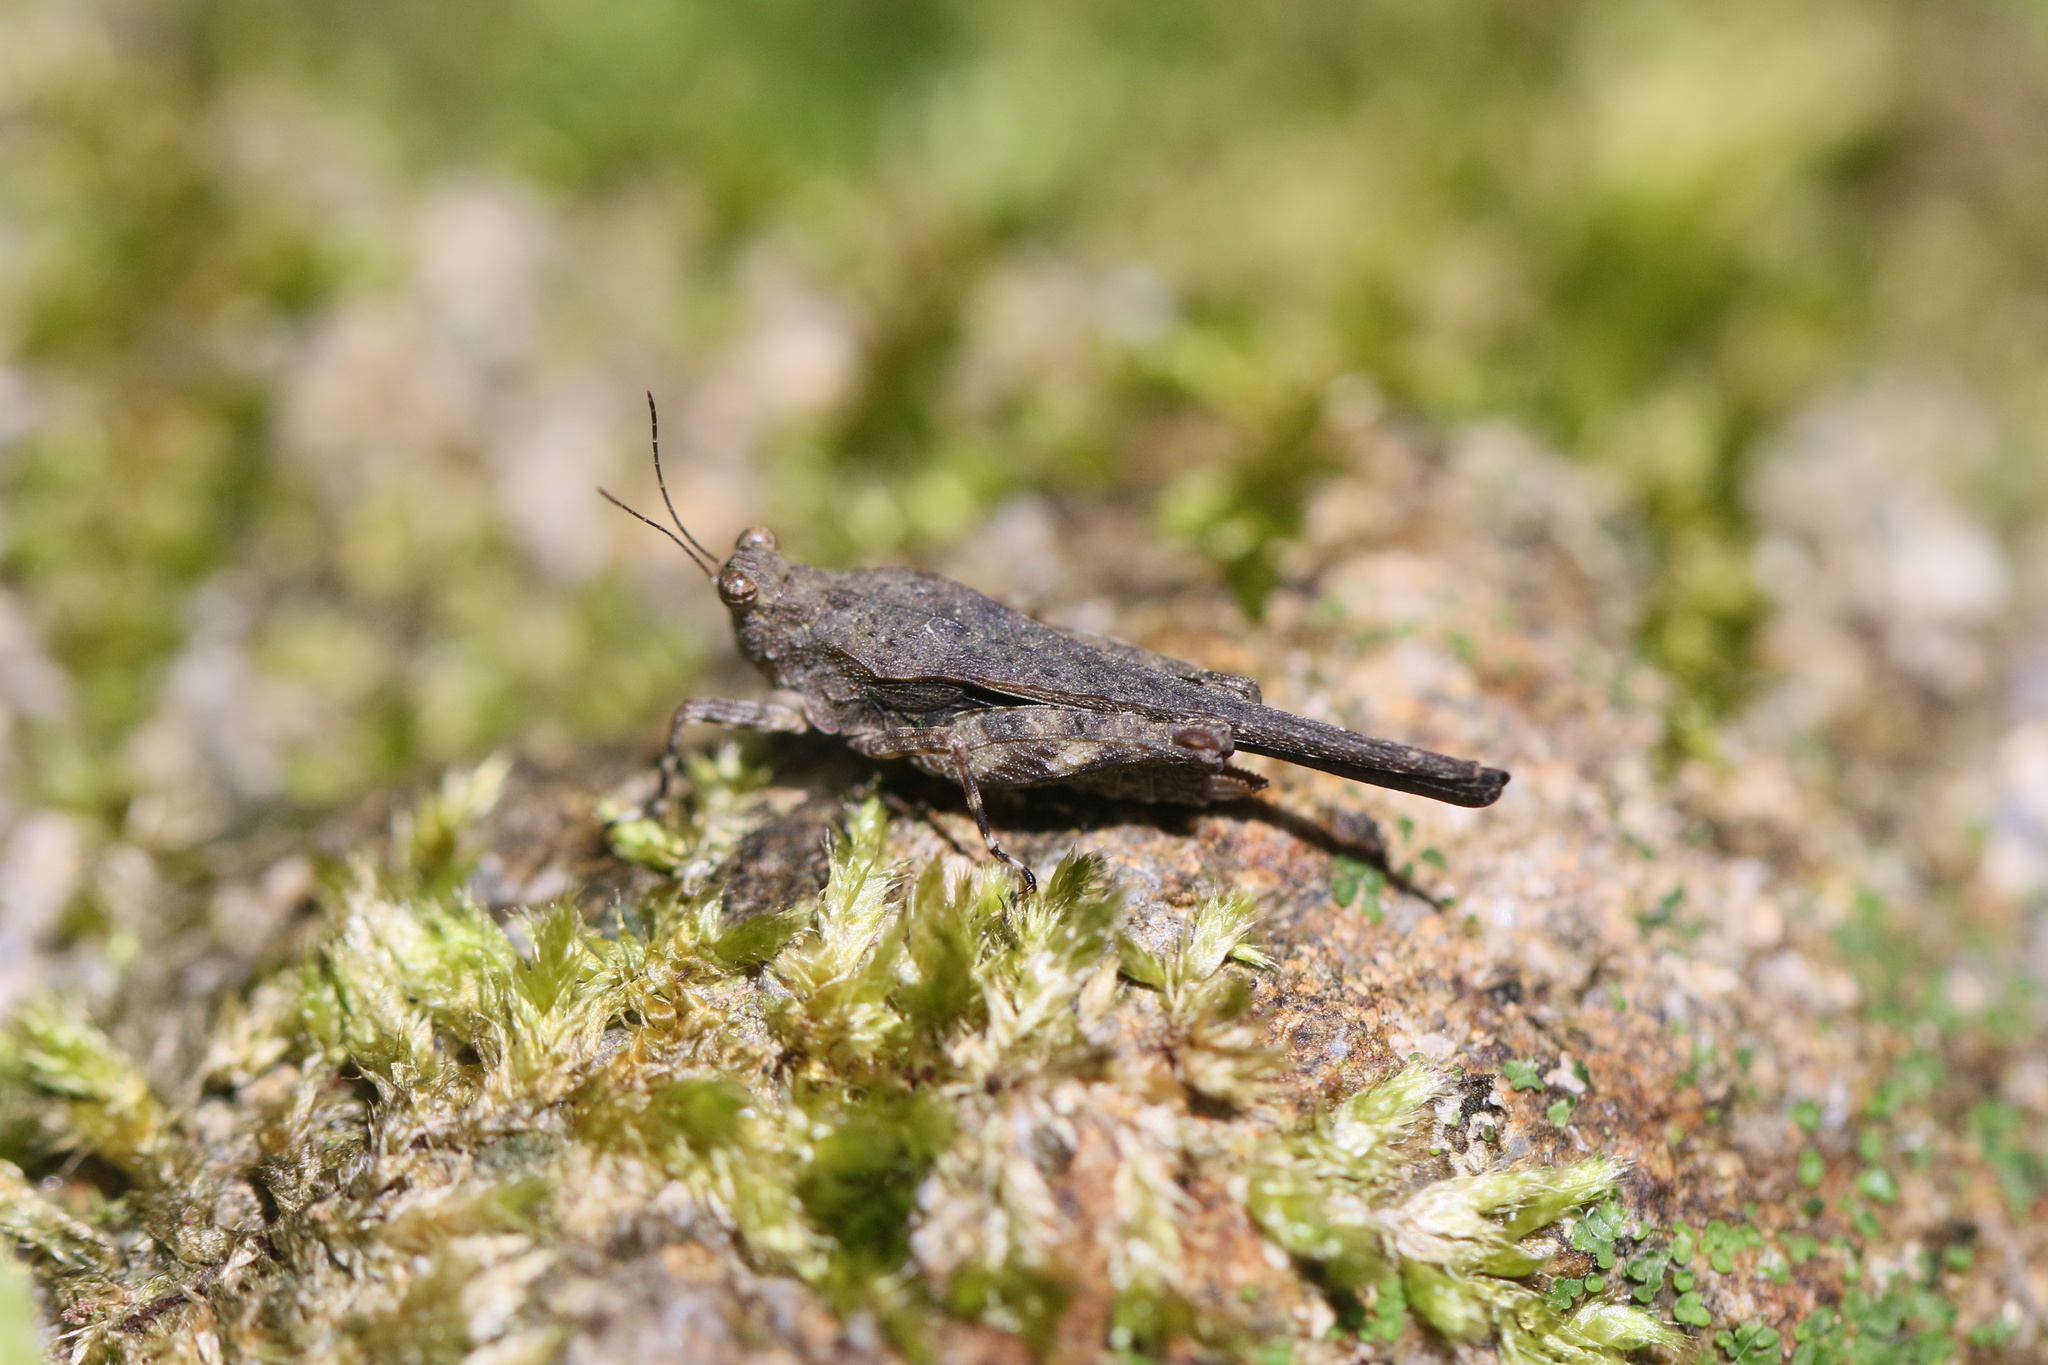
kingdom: Animalia
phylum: Arthropoda
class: Insecta
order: Orthoptera
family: Tetrigidae
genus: Crimisus
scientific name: Crimisus costaricensis
